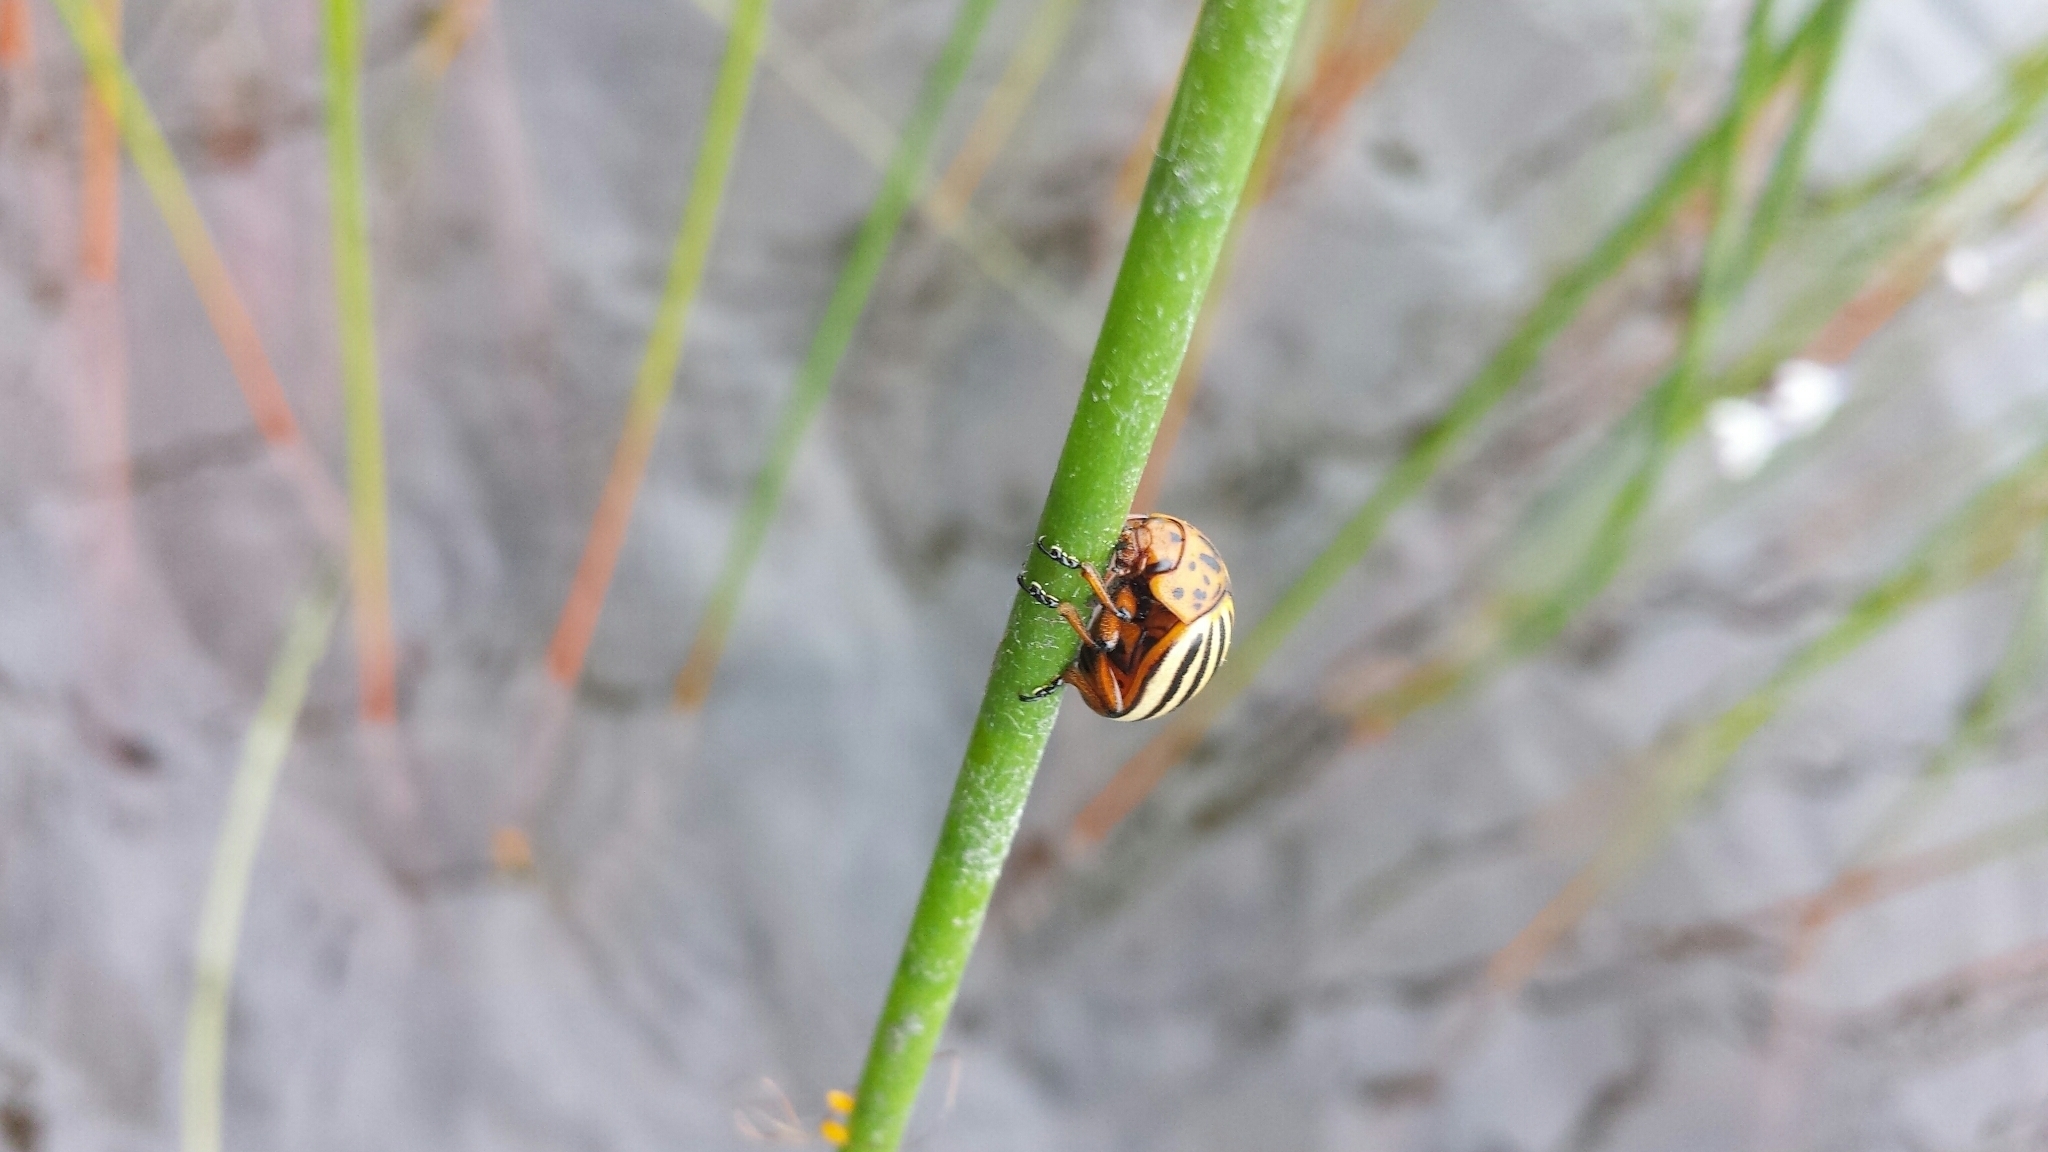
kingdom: Animalia
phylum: Arthropoda
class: Insecta
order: Coleoptera
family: Chrysomelidae
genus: Leptinotarsa
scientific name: Leptinotarsa decemlineata
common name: Colorado potato beetle
